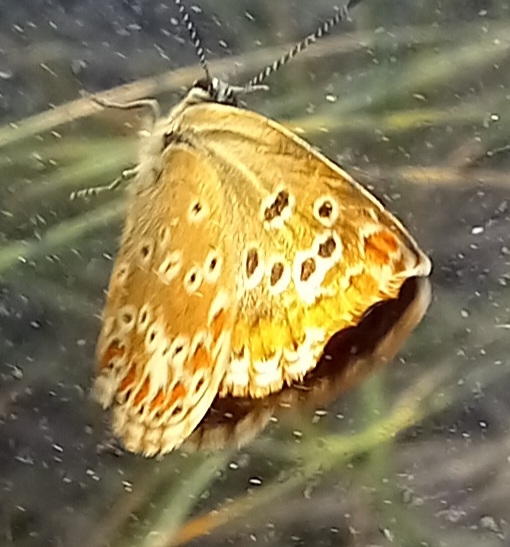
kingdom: Animalia
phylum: Arthropoda
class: Insecta
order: Lepidoptera
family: Lycaenidae
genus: Aricia
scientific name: Aricia cramera
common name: Eschscholtz´s brown  argus
